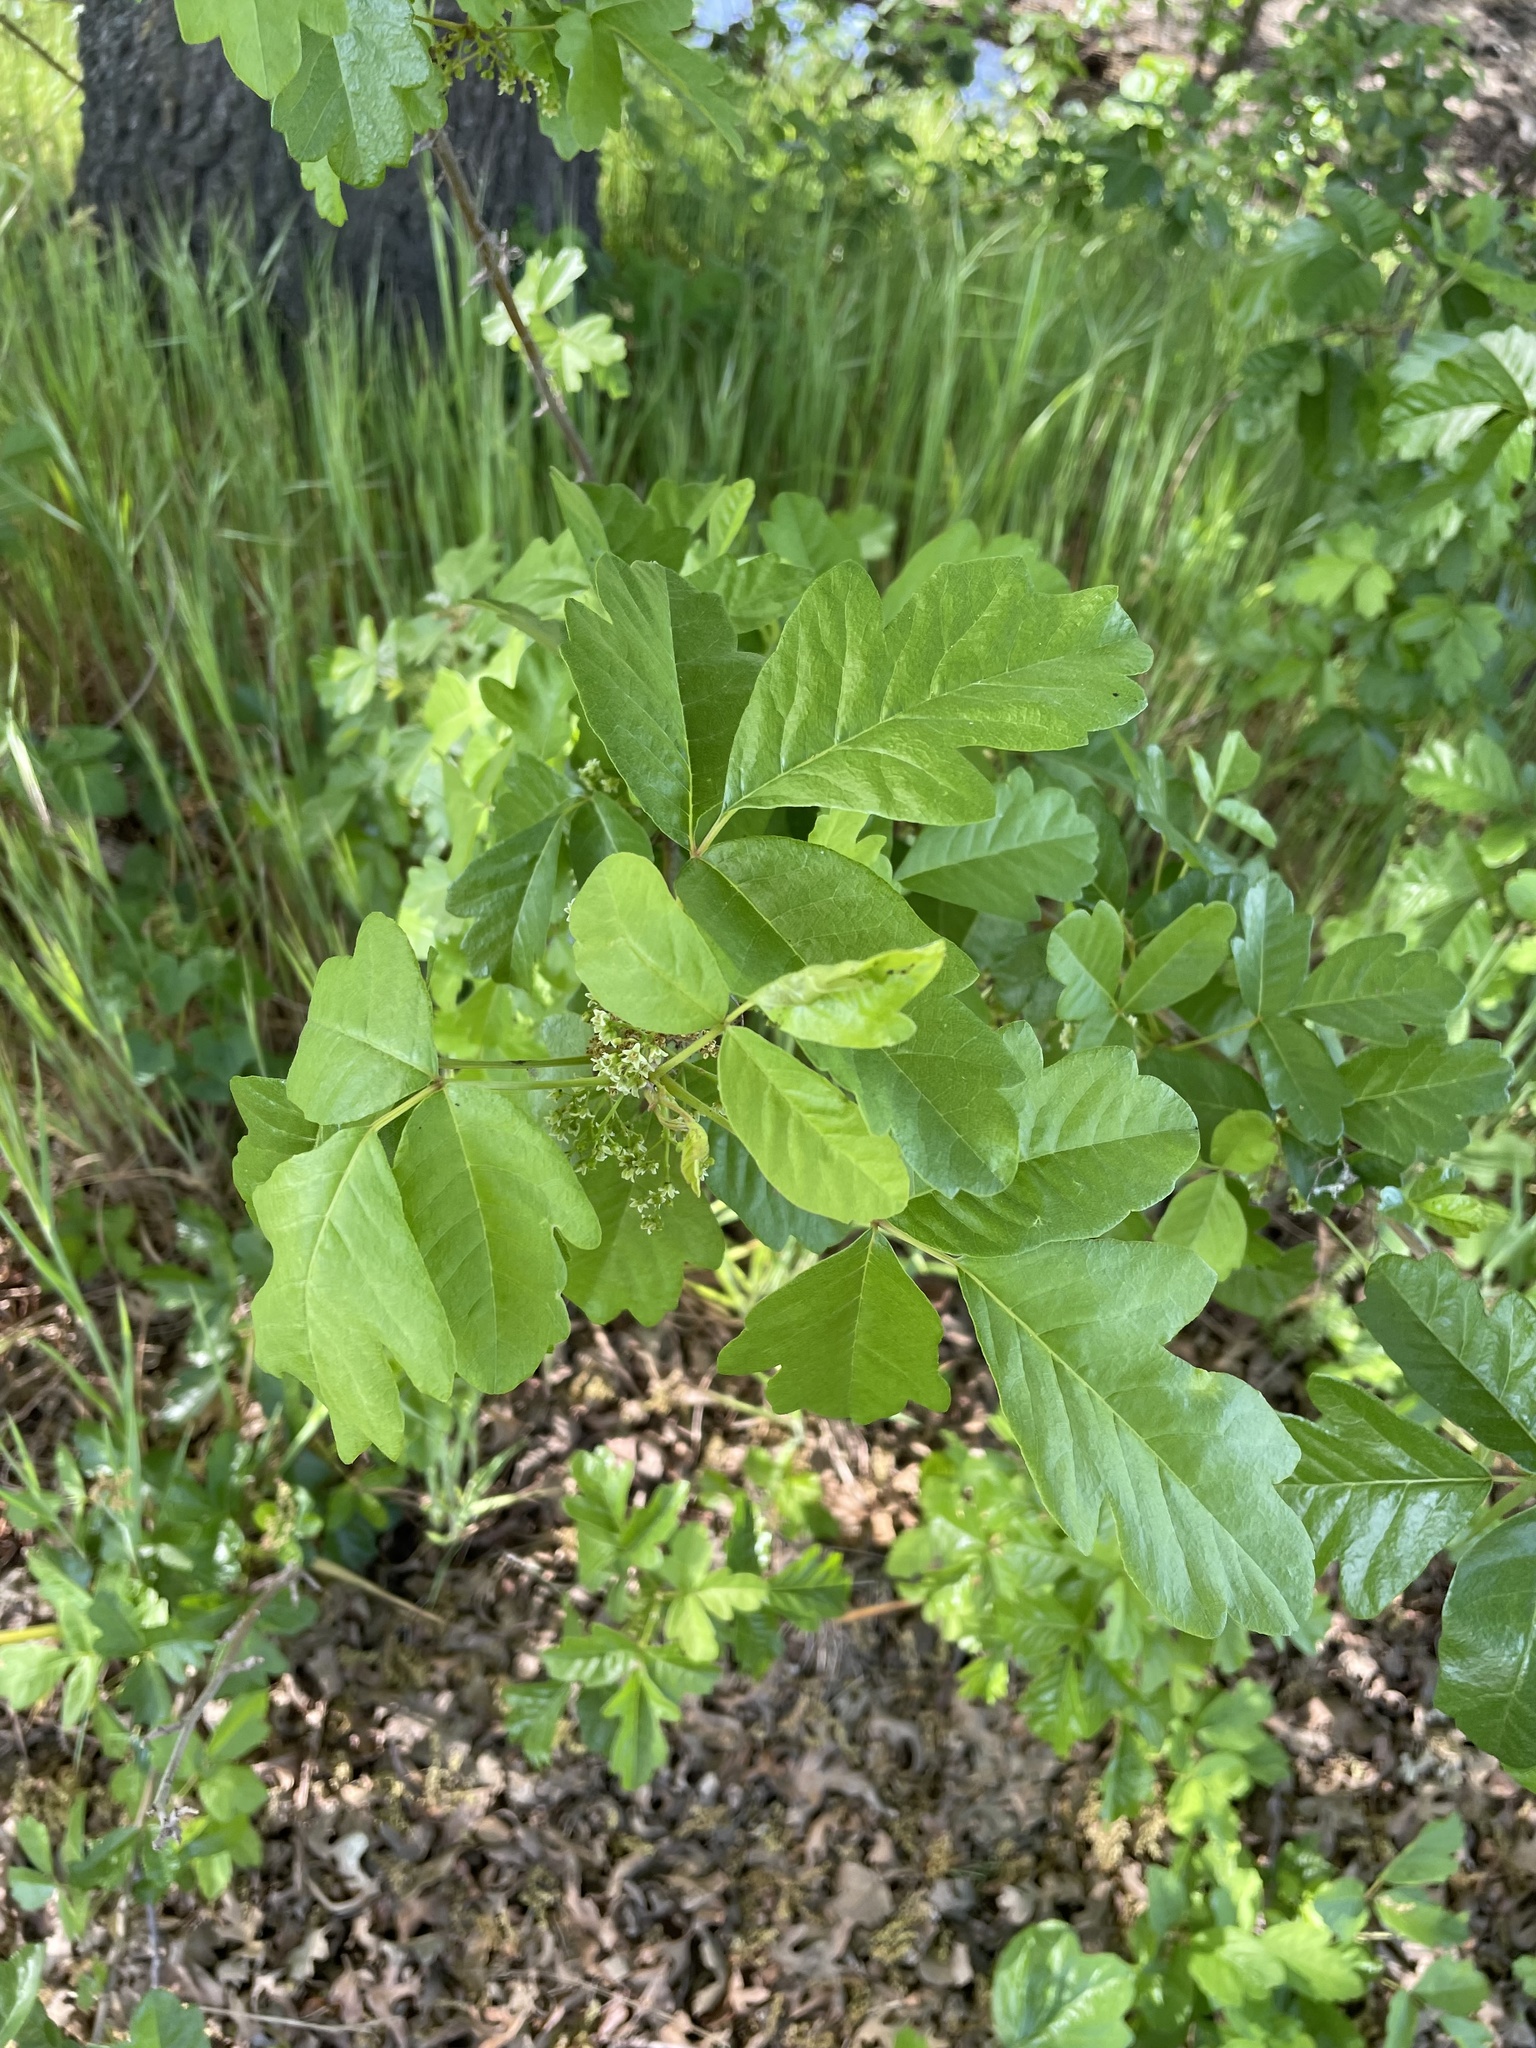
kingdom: Plantae
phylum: Tracheophyta
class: Magnoliopsida
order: Sapindales
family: Anacardiaceae
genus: Toxicodendron
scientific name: Toxicodendron diversilobum
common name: Pacific poison-oak
